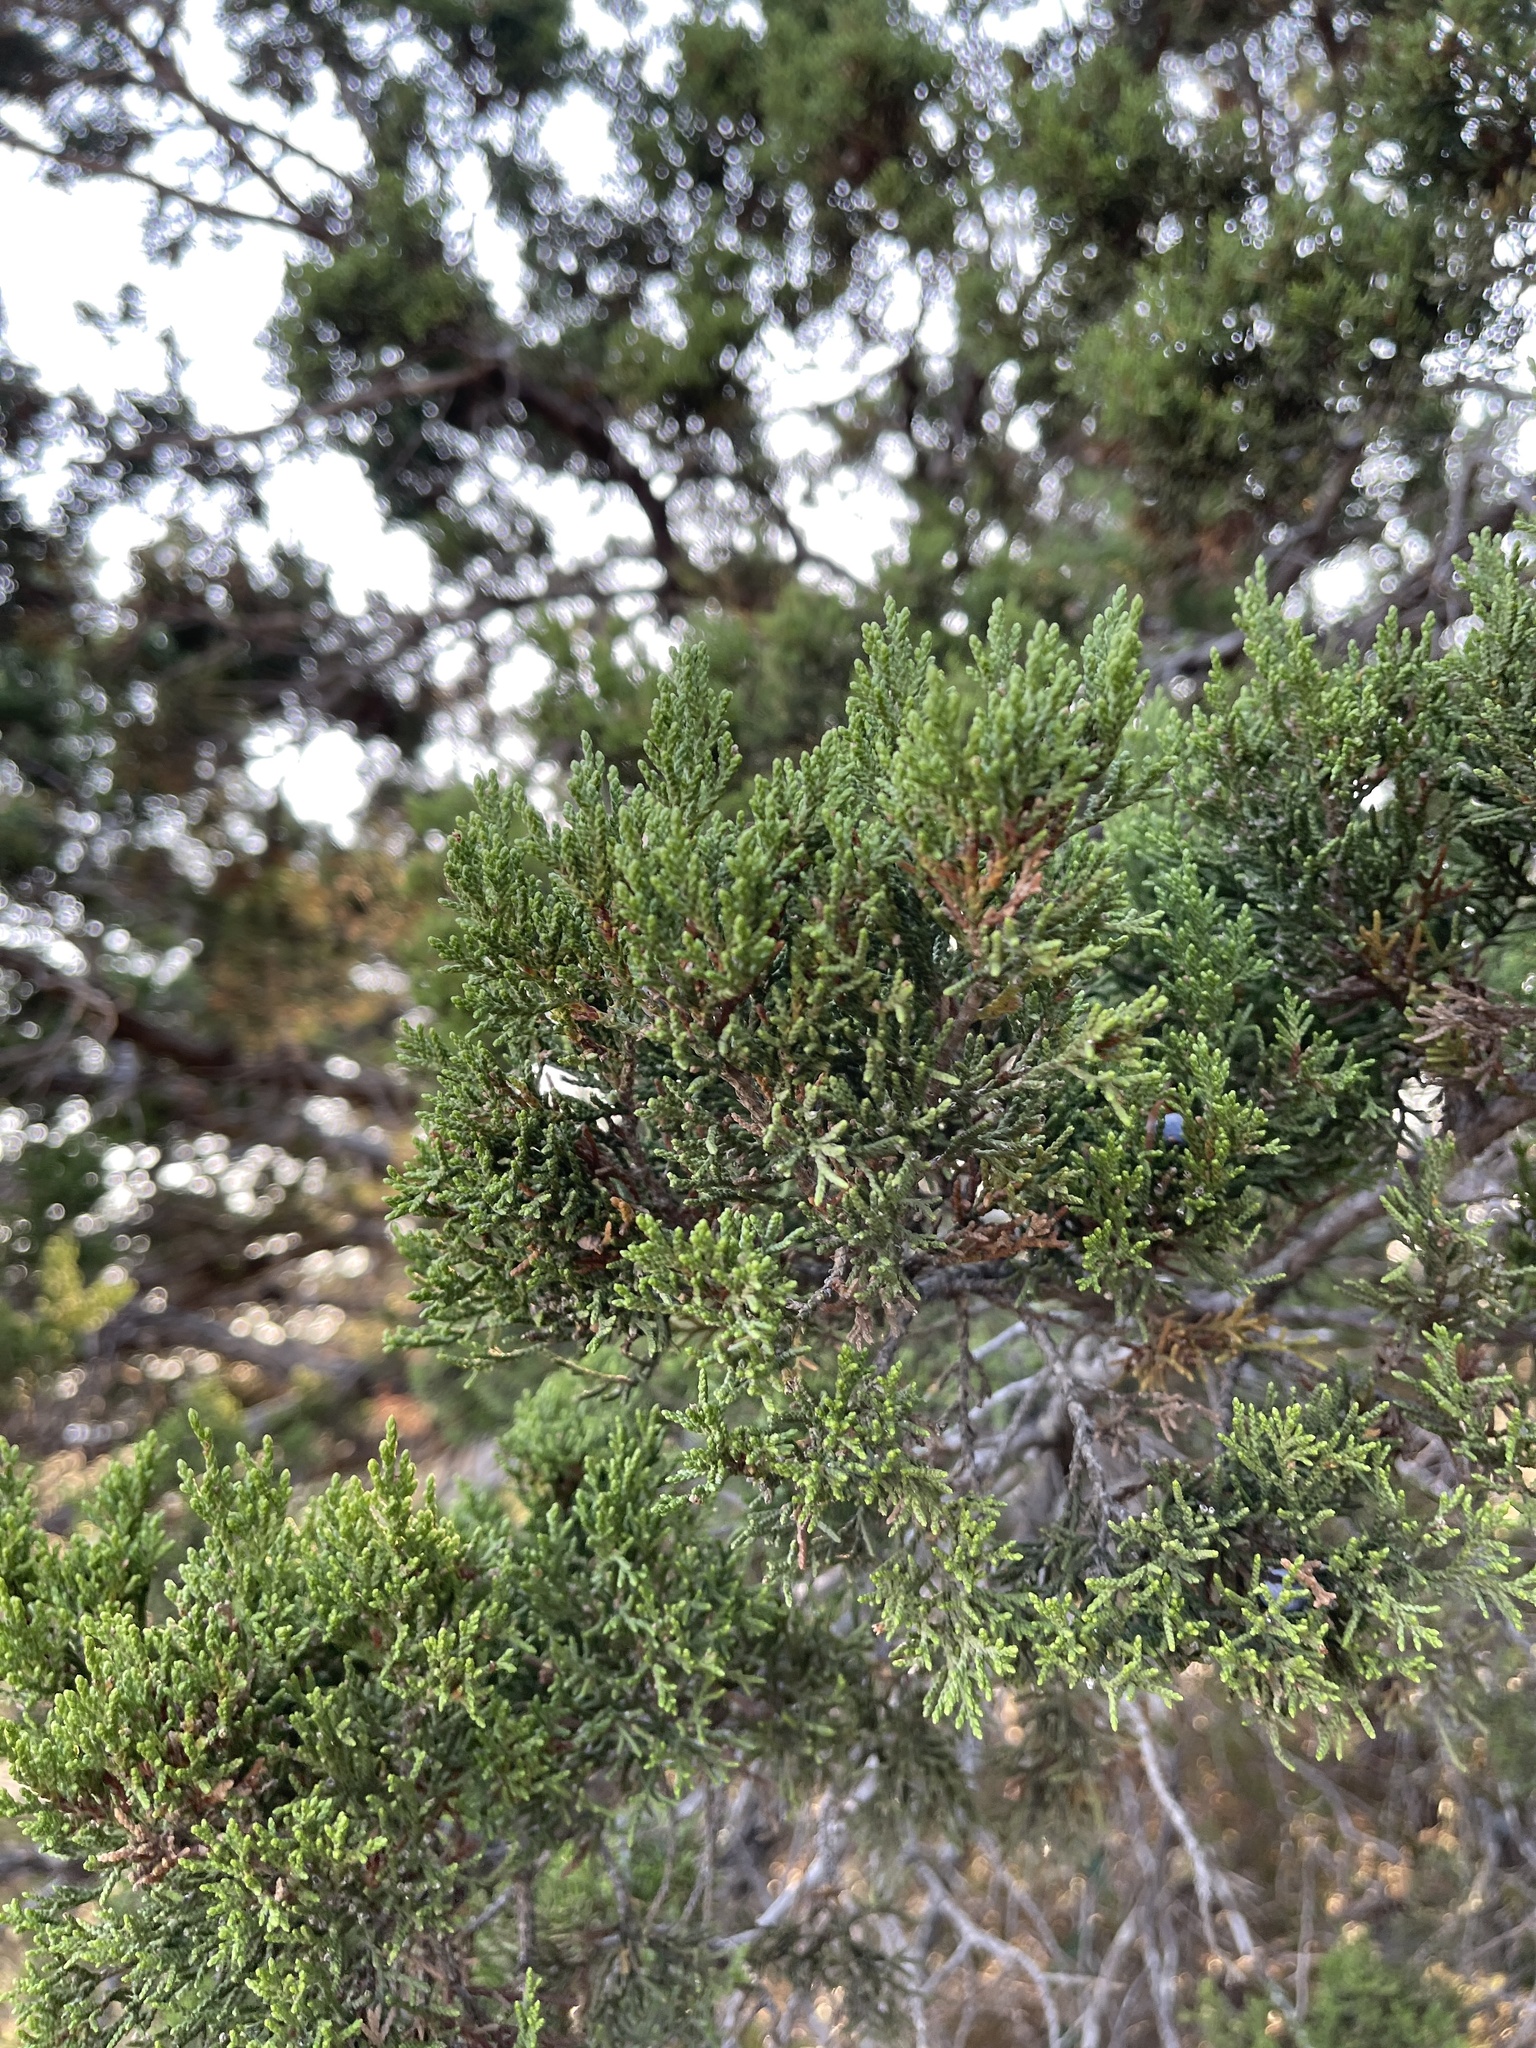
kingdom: Plantae
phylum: Tracheophyta
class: Pinopsida
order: Pinales
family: Cupressaceae
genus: Juniperus
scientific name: Juniperus ashei
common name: Mexican juniper
